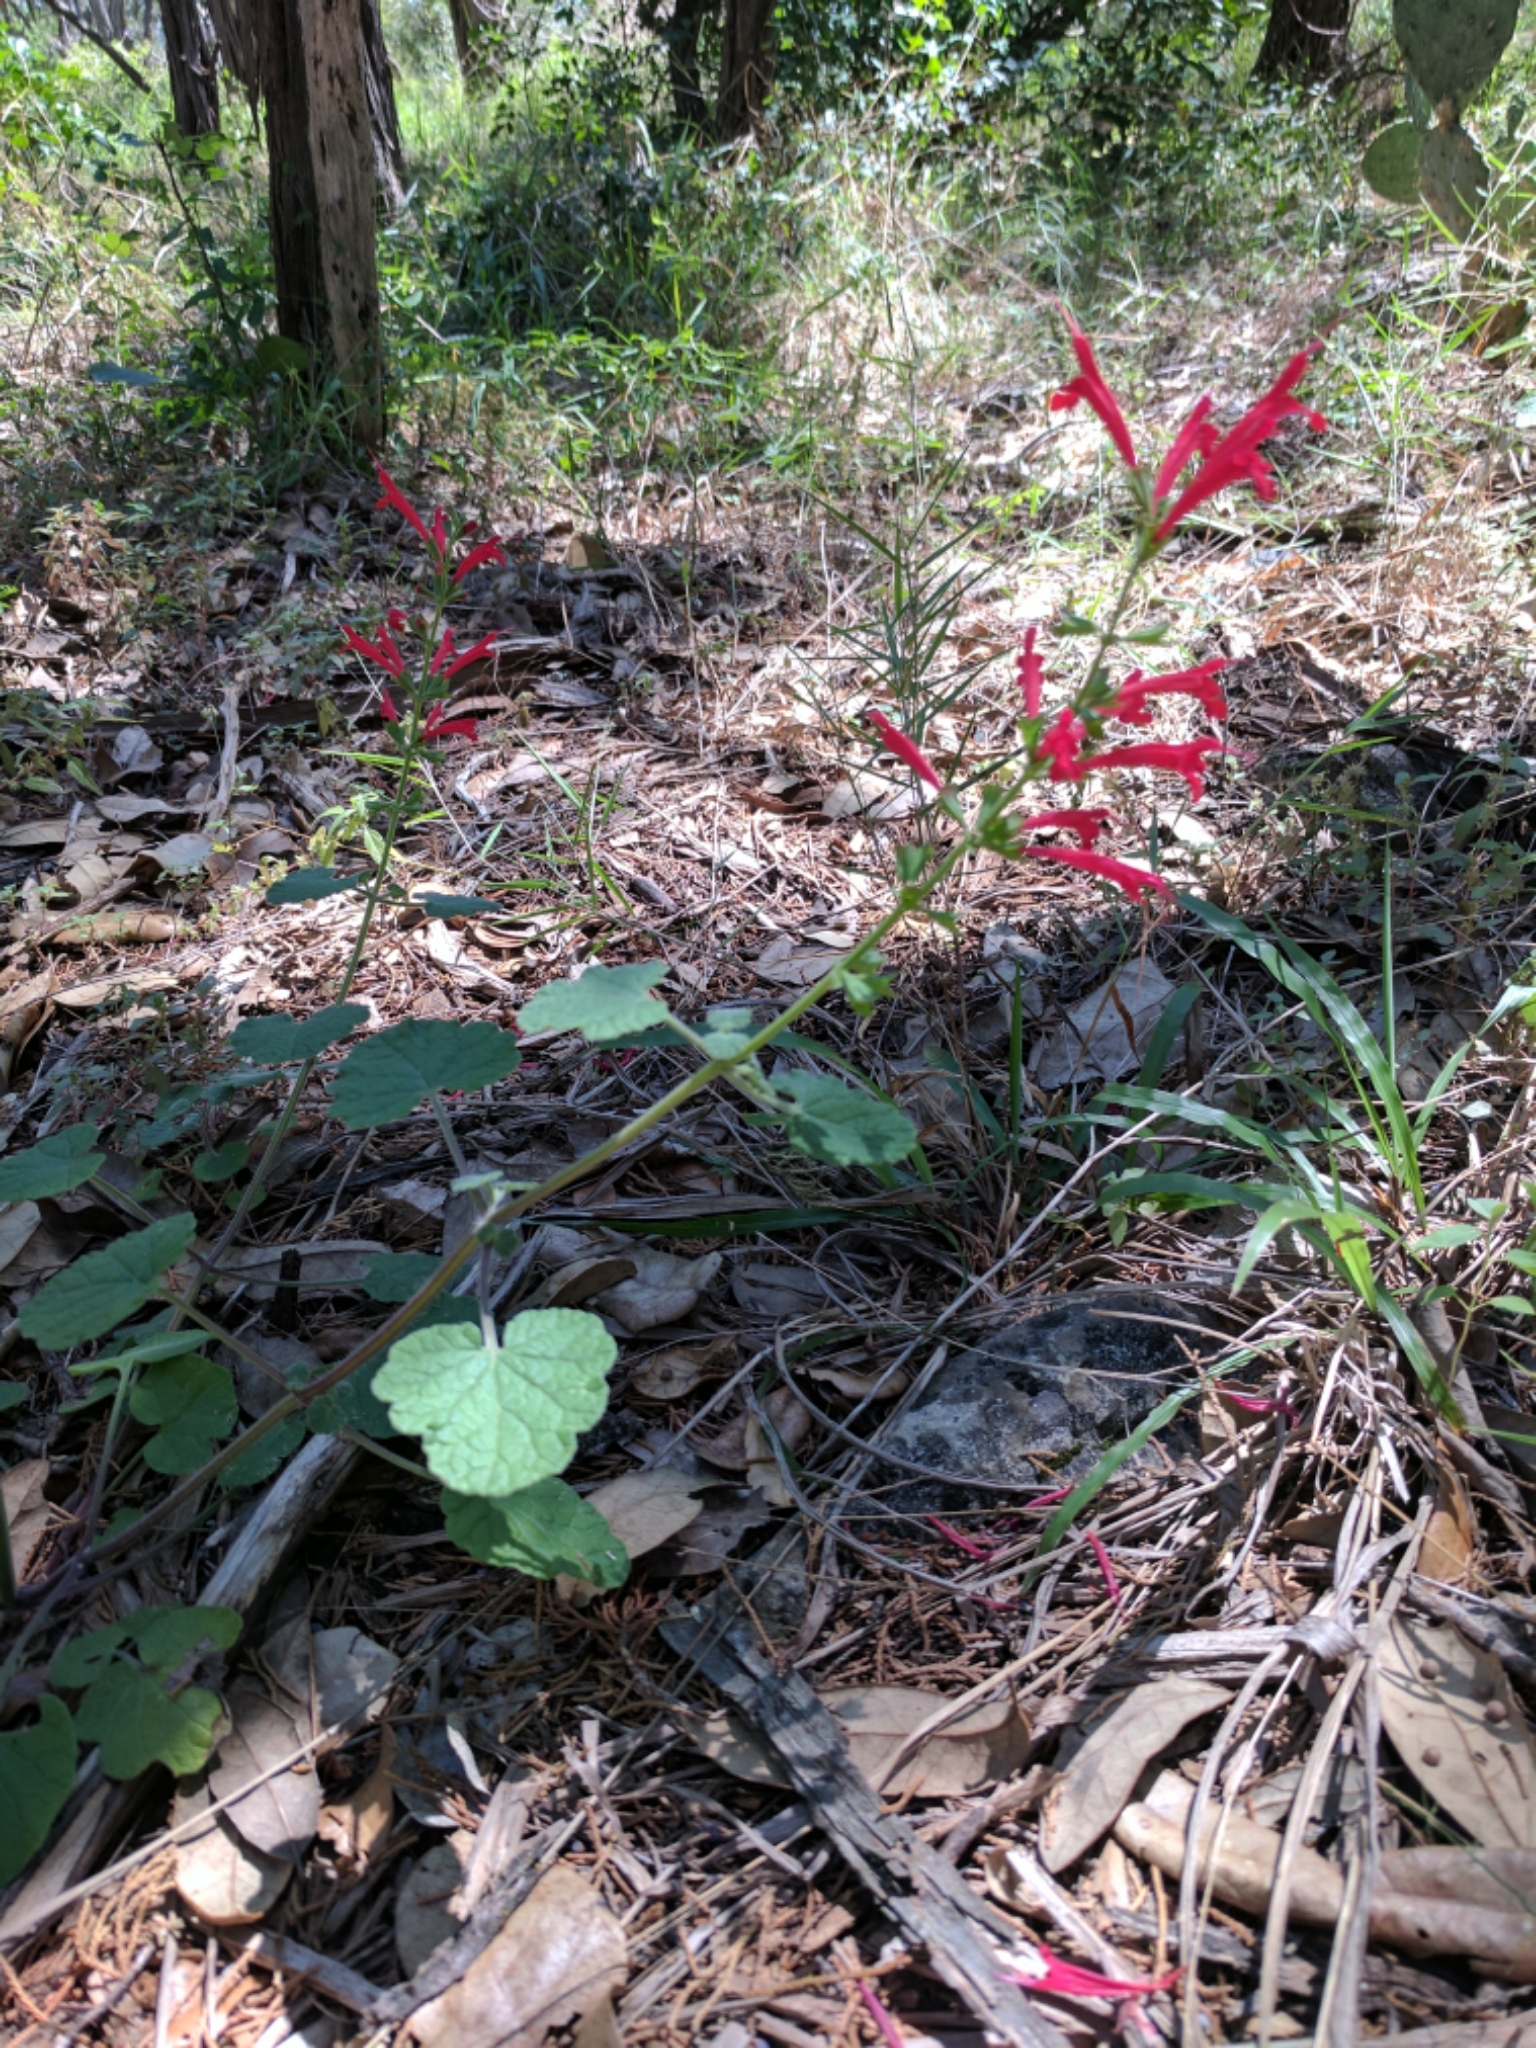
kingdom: Plantae
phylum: Tracheophyta
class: Magnoliopsida
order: Lamiales
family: Lamiaceae
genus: Salvia
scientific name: Salvia roemeriana
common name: Cedar sage
